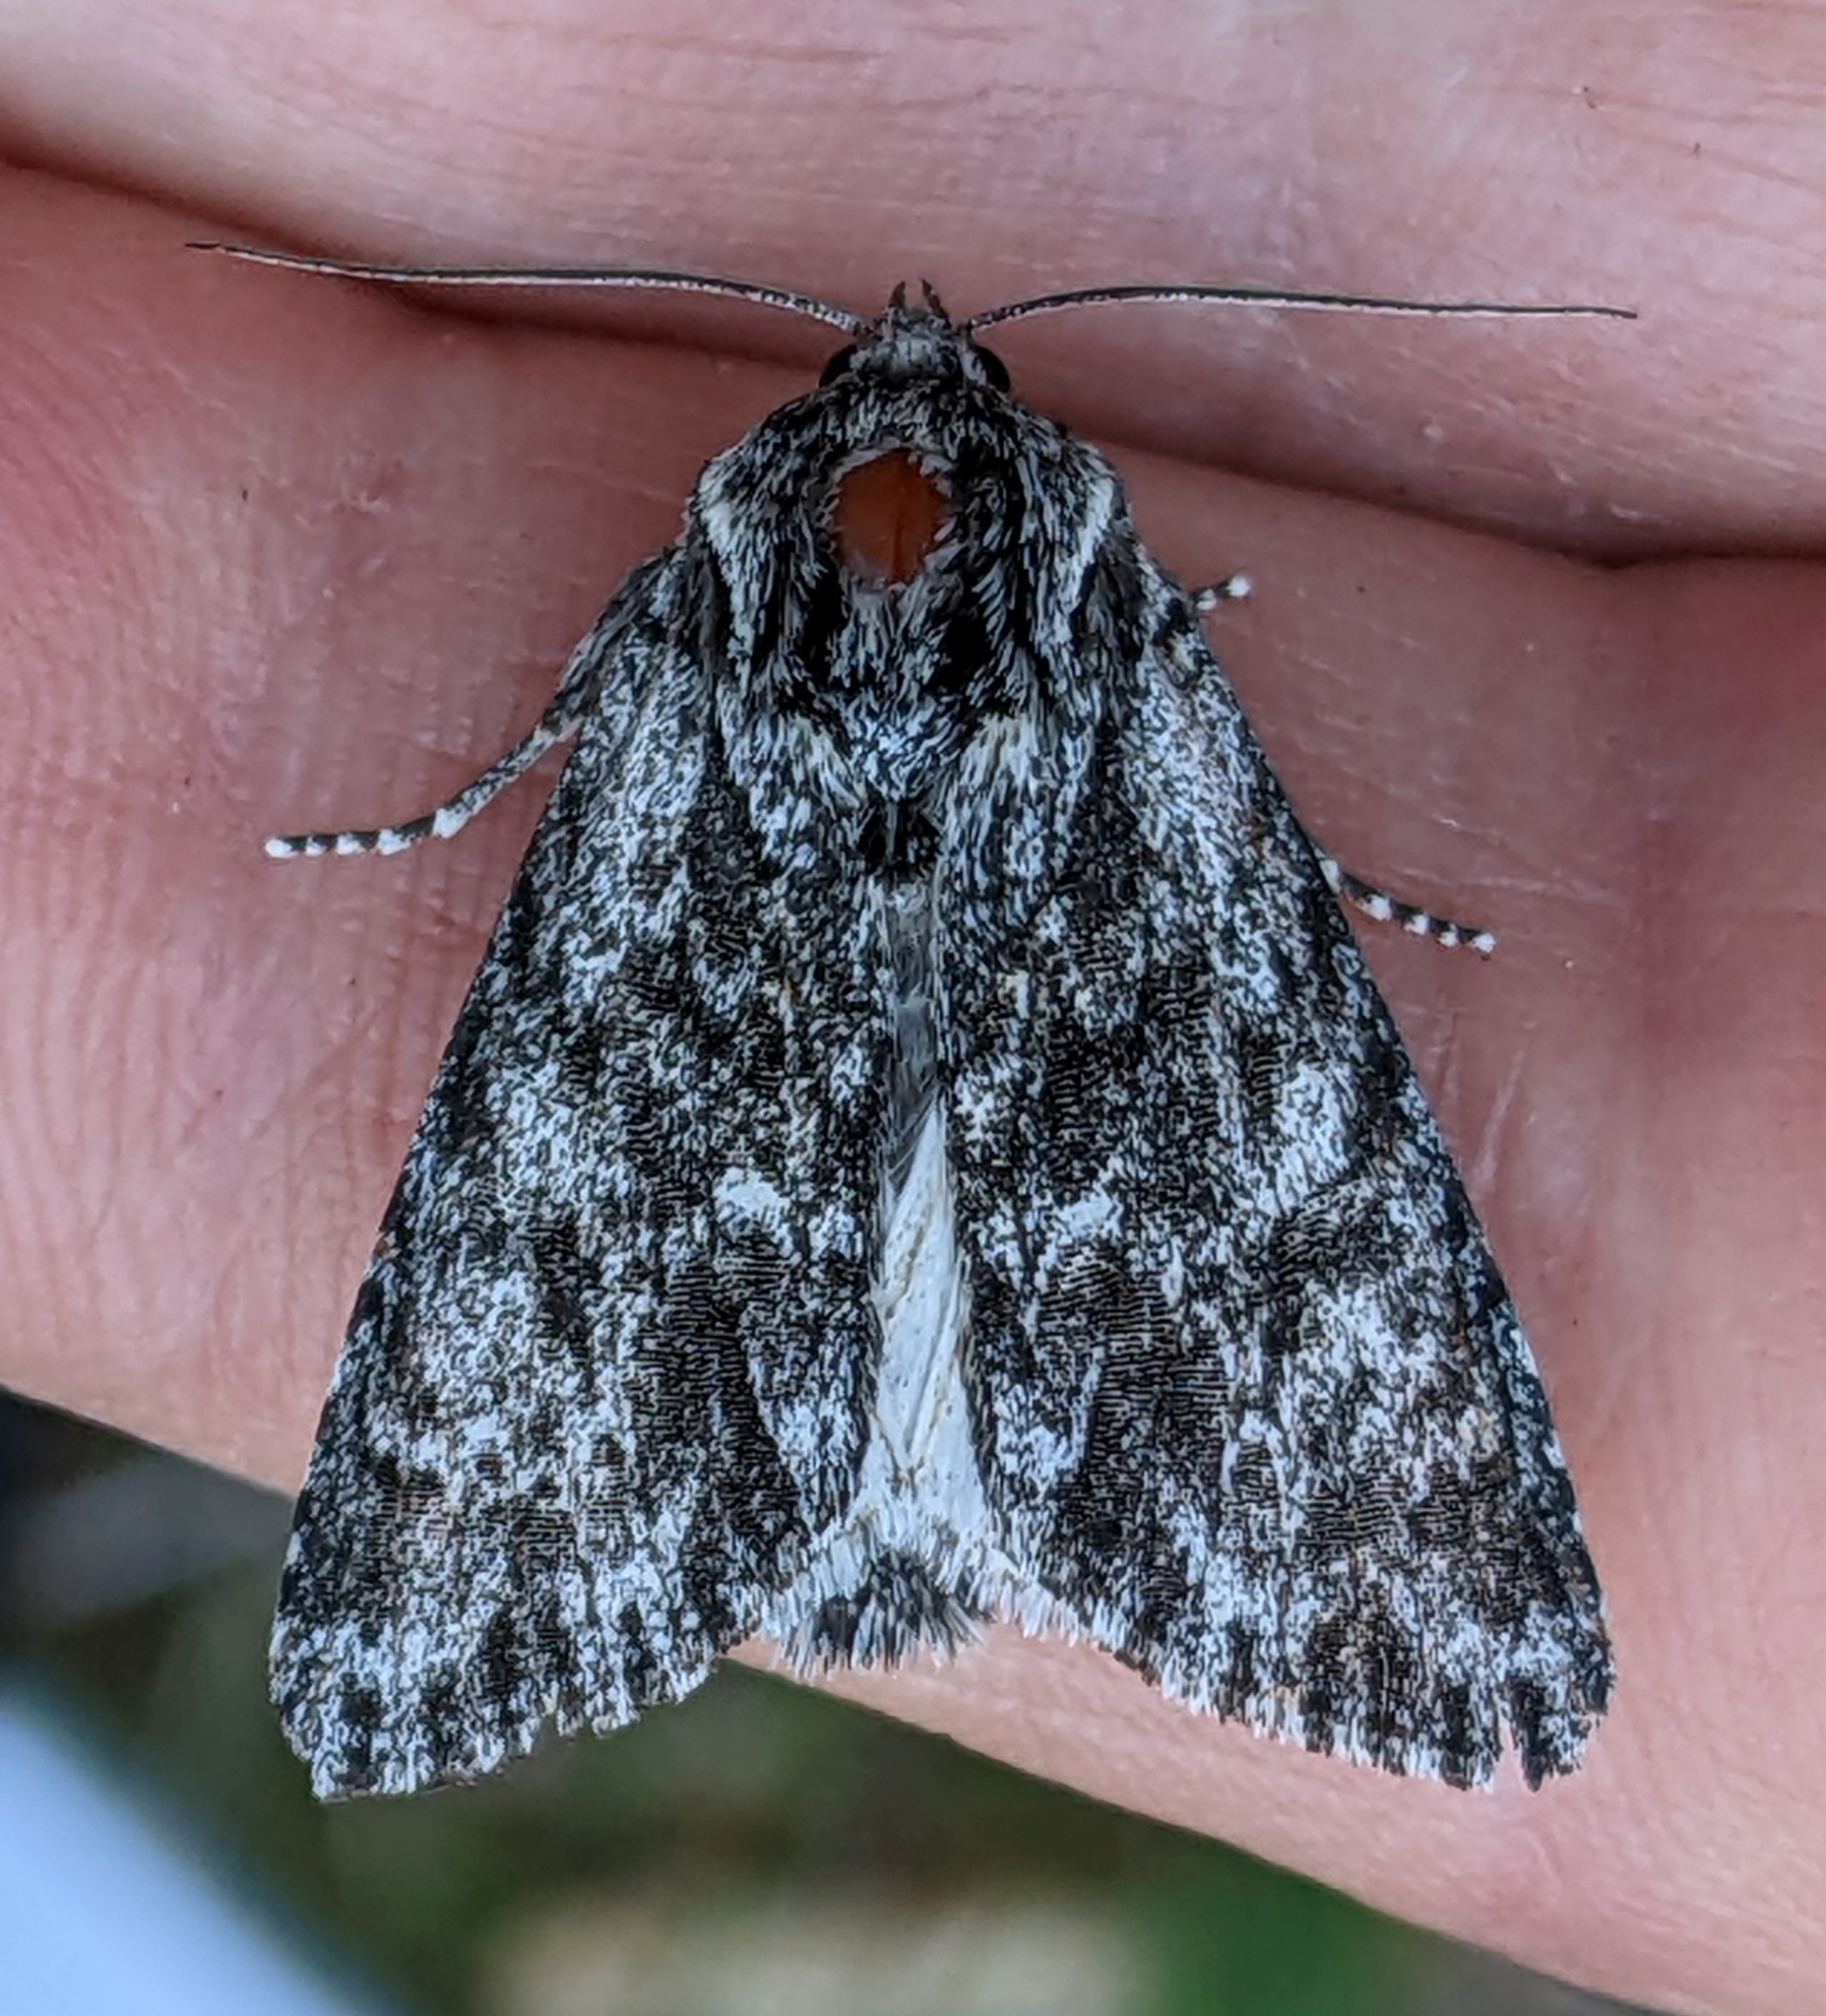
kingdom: Animalia
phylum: Arthropoda
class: Insecta
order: Lepidoptera
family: Noctuidae
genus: Acronicta
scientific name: Acronicta perdita
